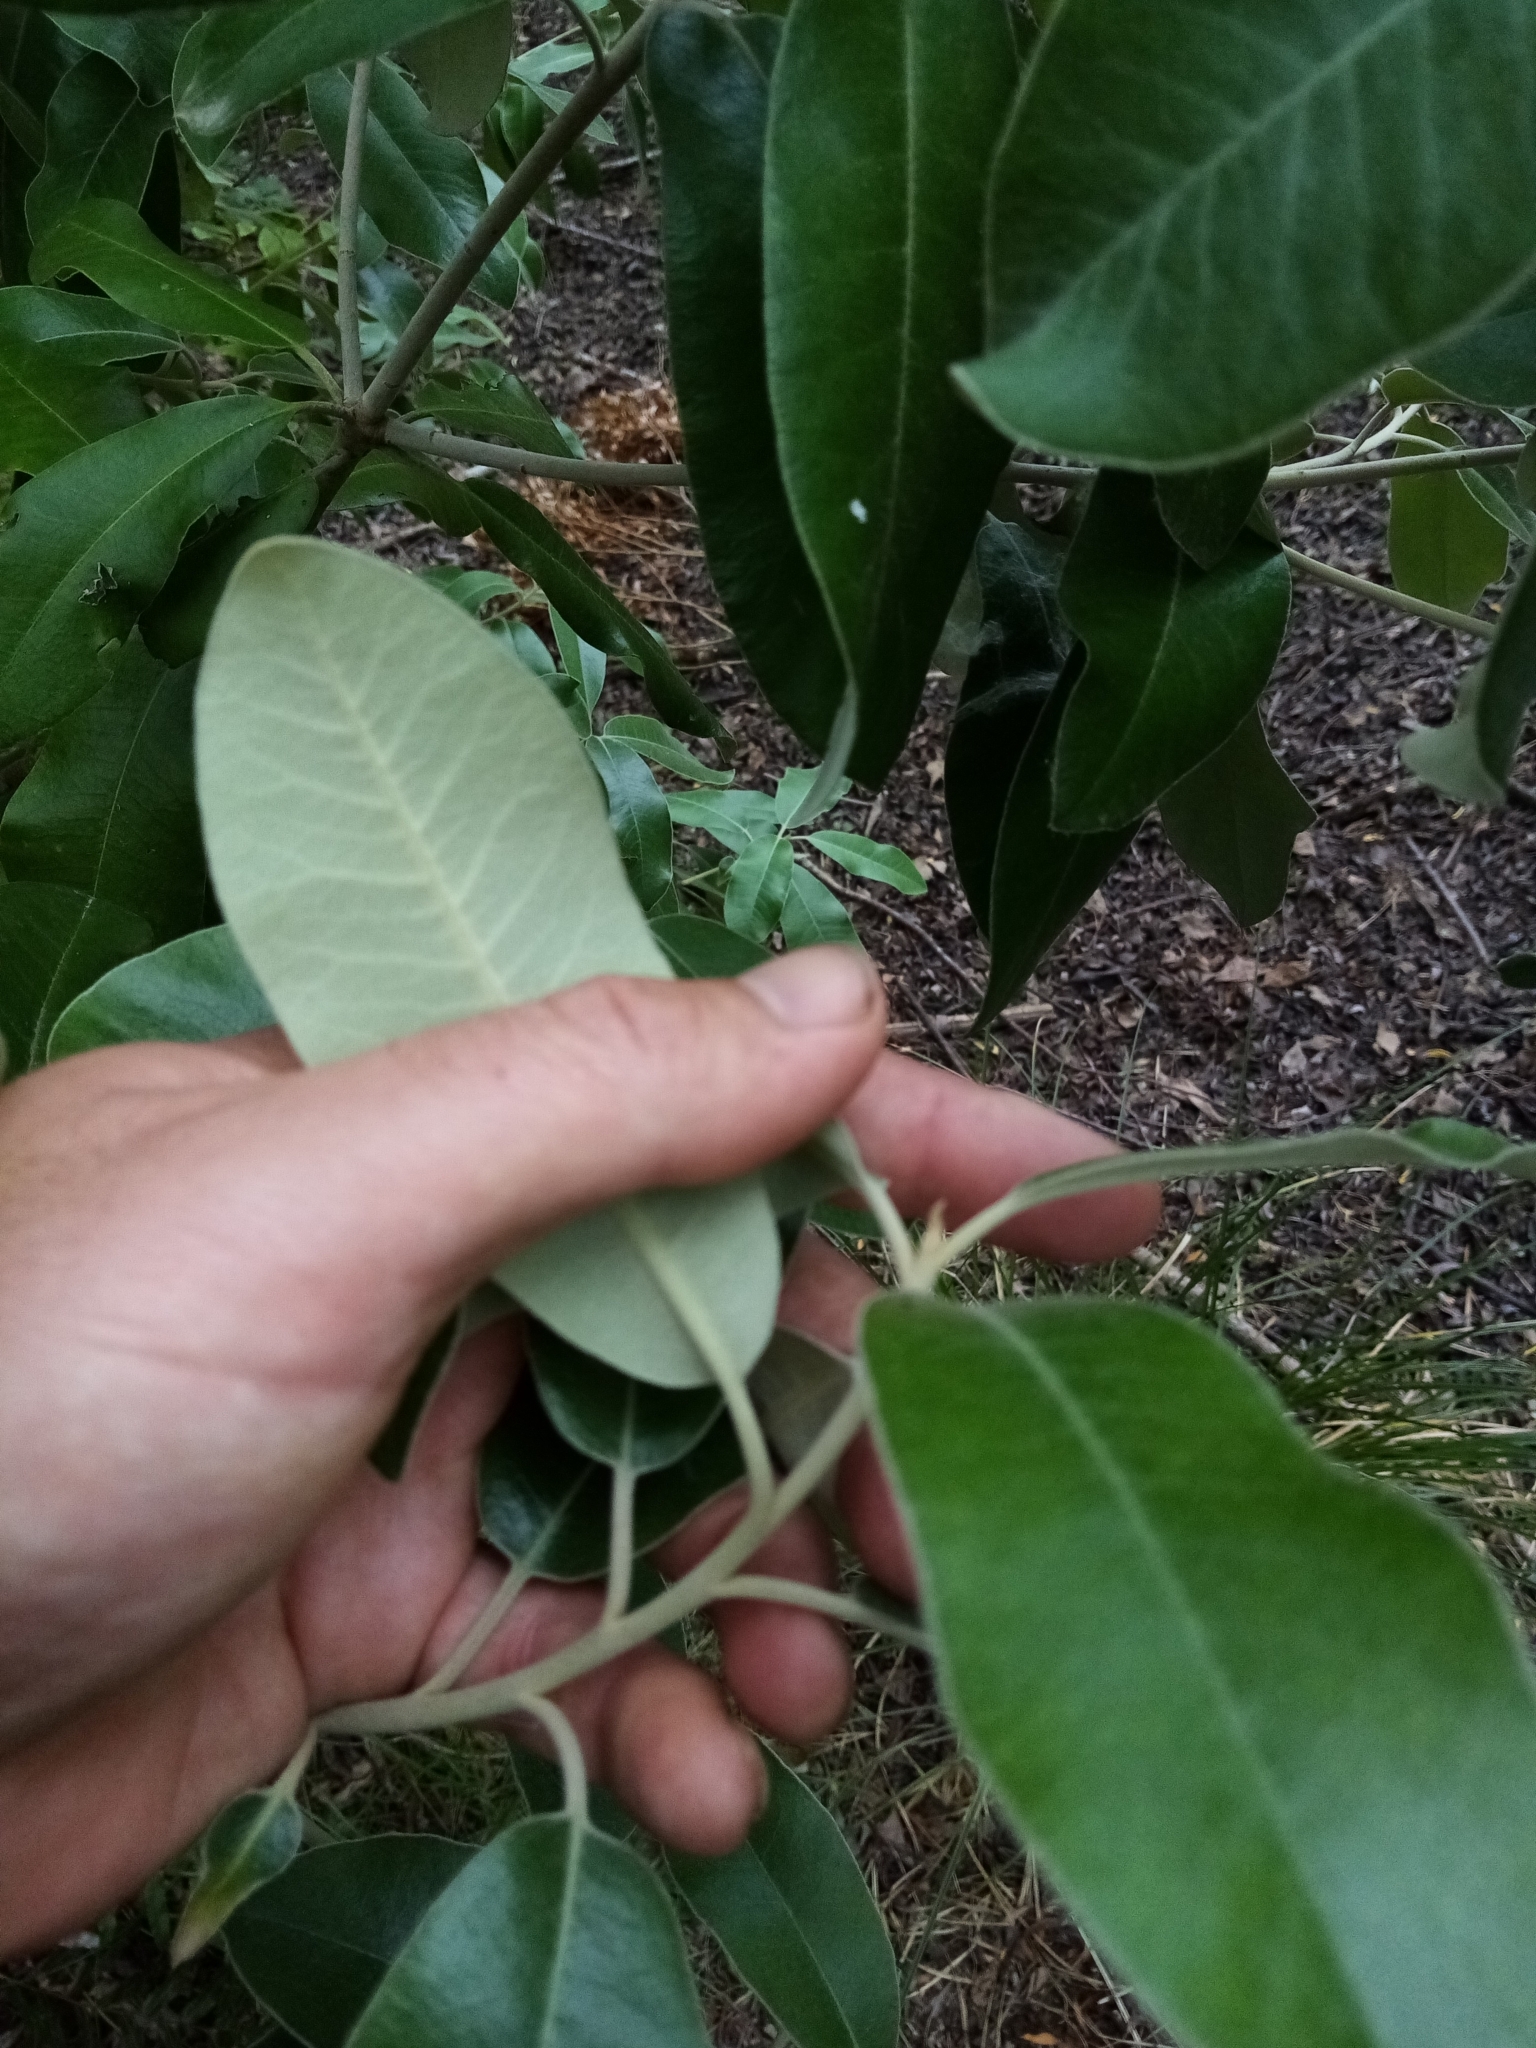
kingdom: Plantae
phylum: Tracheophyta
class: Magnoliopsida
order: Apiales
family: Pittosporaceae
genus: Pittosporum
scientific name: Pittosporum ralphii
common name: Ralph's desertwillow
